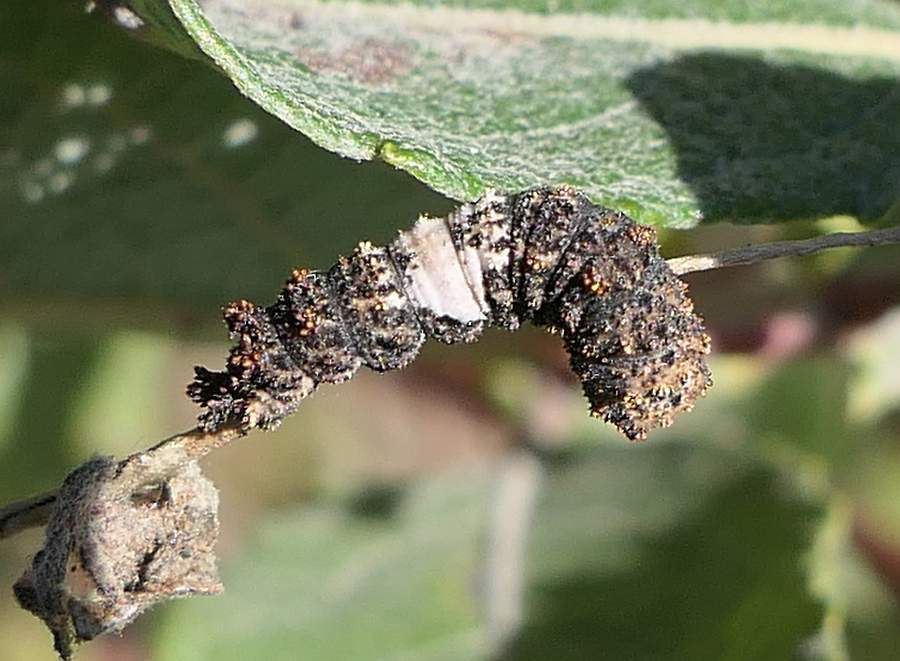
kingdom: Animalia
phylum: Arthropoda
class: Insecta
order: Lepidoptera
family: Nymphalidae
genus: Limenitis
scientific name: Limenitis
